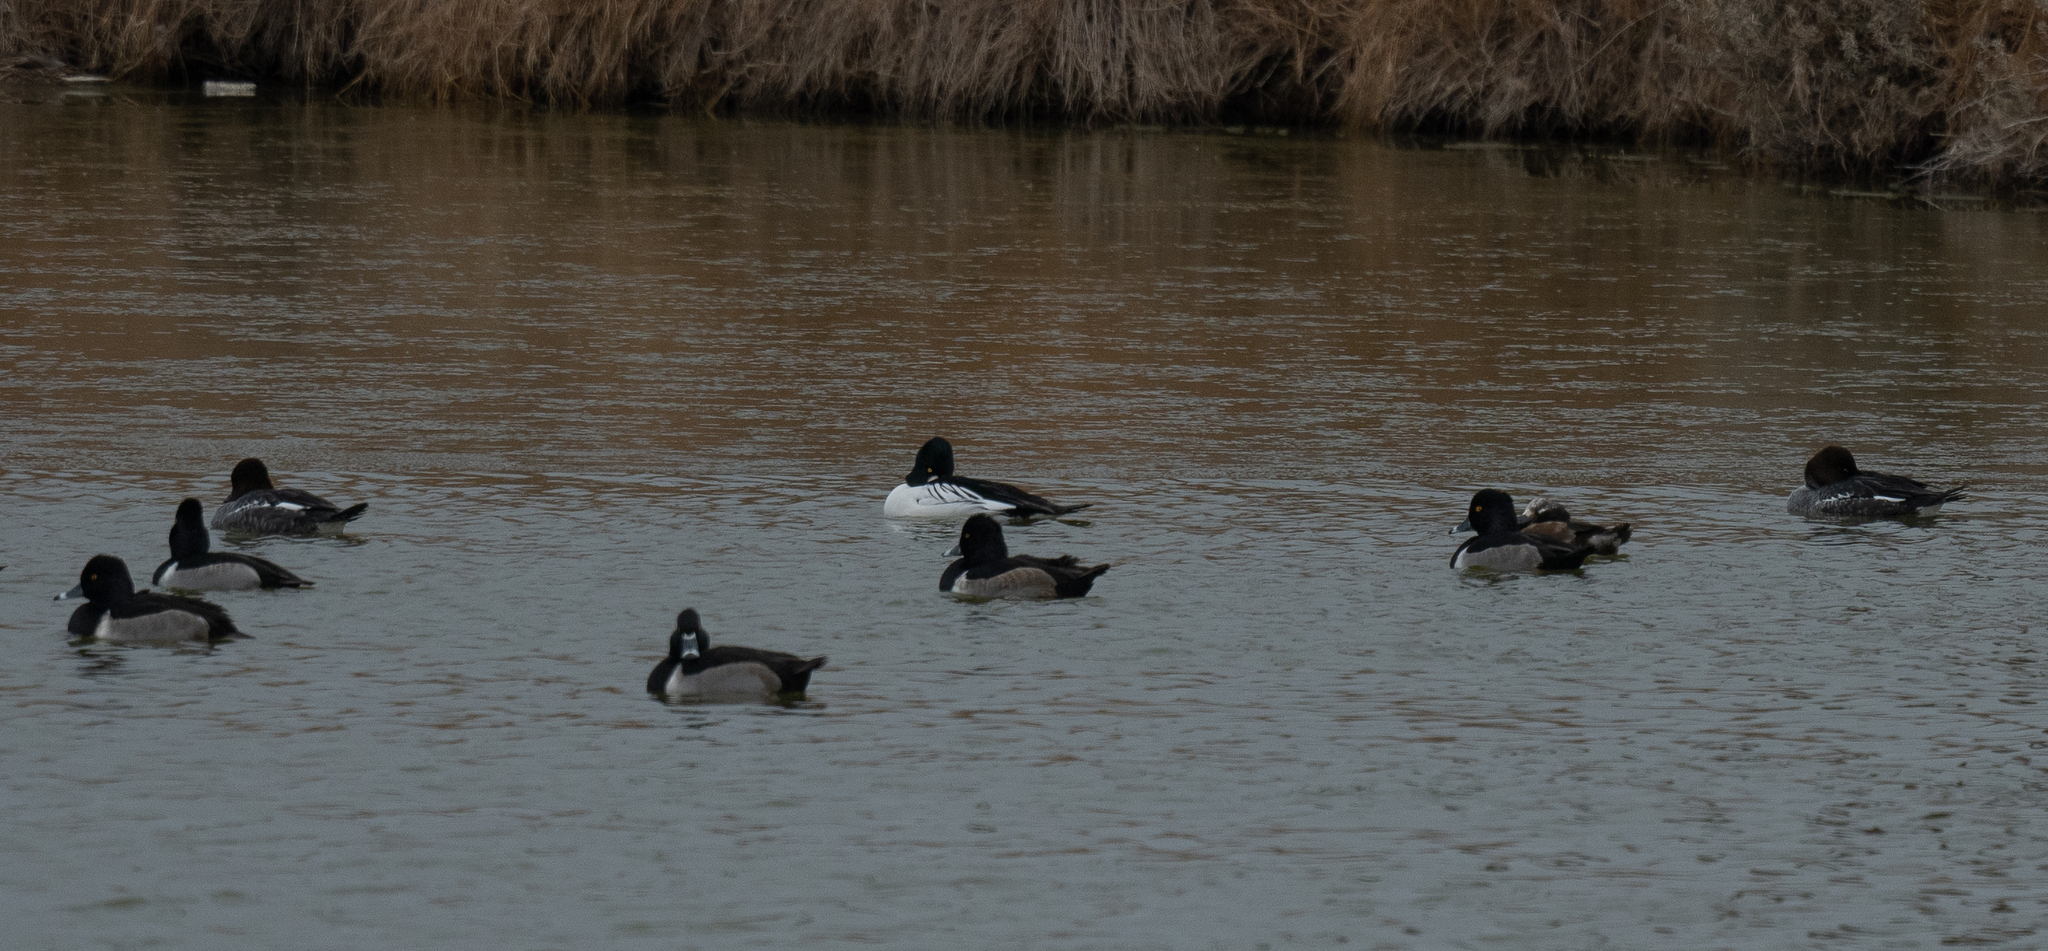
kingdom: Animalia
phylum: Chordata
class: Aves
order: Anseriformes
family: Anatidae
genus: Aythya
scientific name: Aythya collaris
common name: Ring-necked duck
